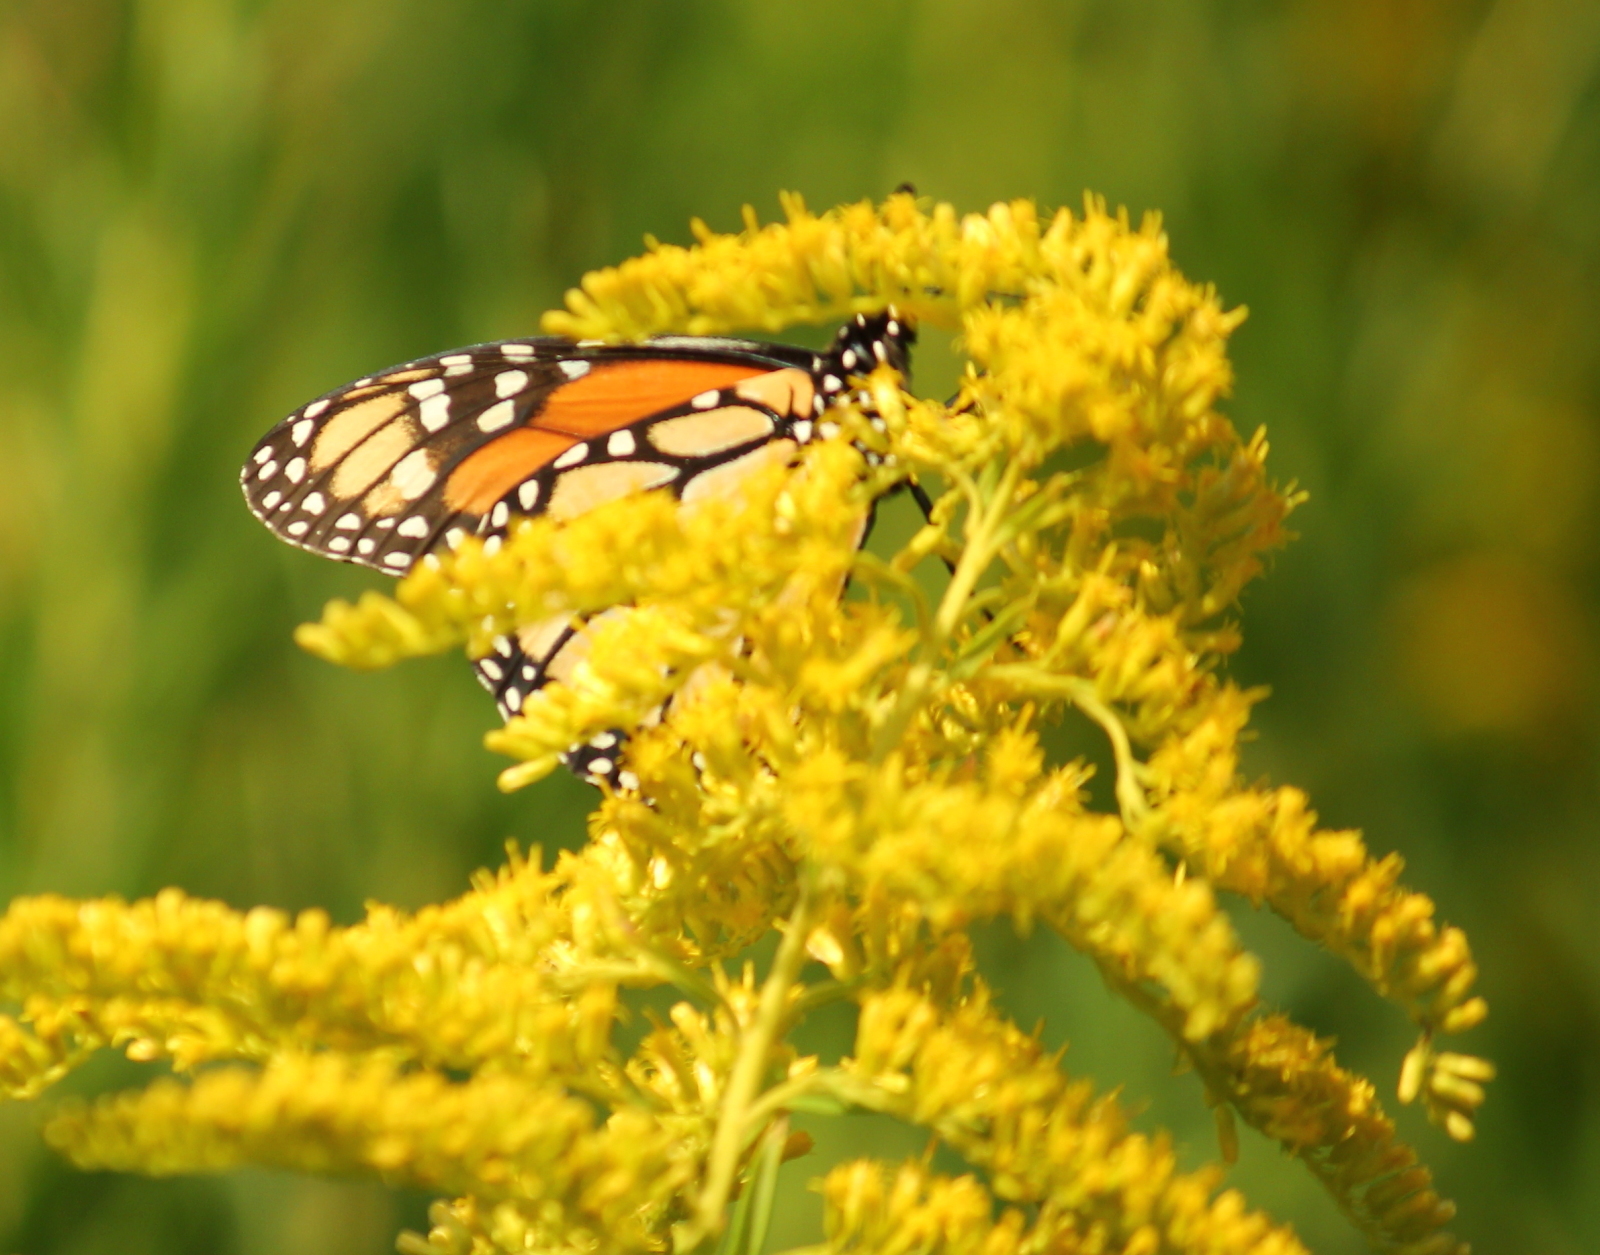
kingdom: Animalia
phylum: Arthropoda
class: Insecta
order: Lepidoptera
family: Nymphalidae
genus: Danaus
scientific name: Danaus plexippus
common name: Monarch
